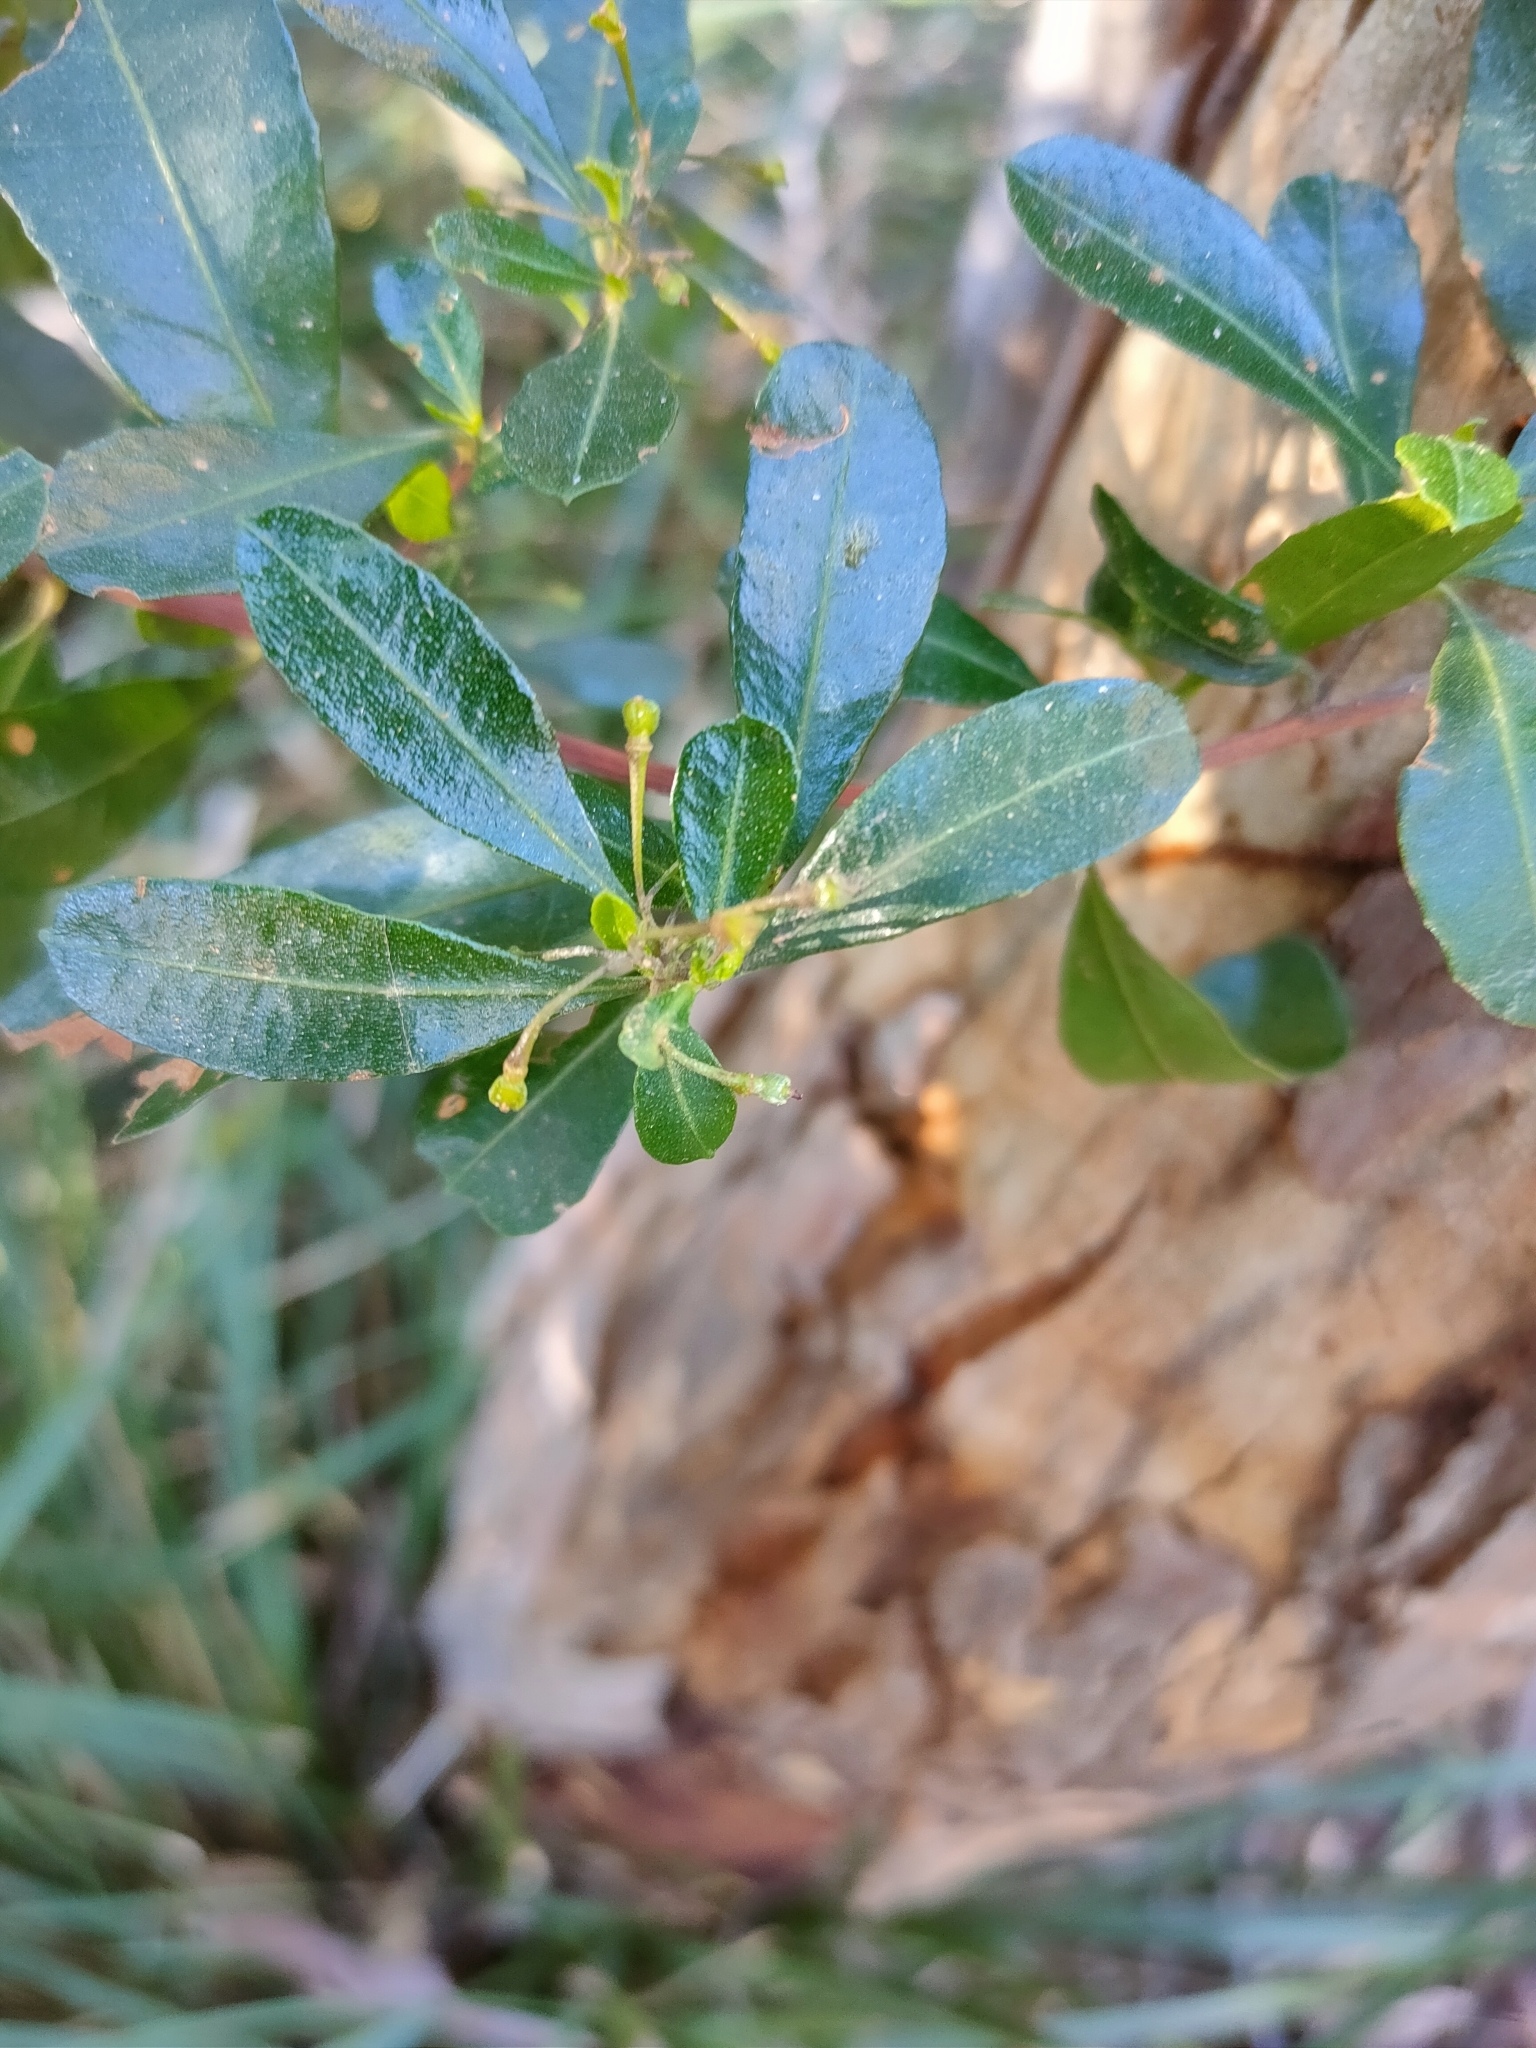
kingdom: Plantae
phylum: Tracheophyta
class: Magnoliopsida
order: Sapindales
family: Sapindaceae
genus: Dodonaea
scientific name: Dodonaea viscosa
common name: Hopbush
